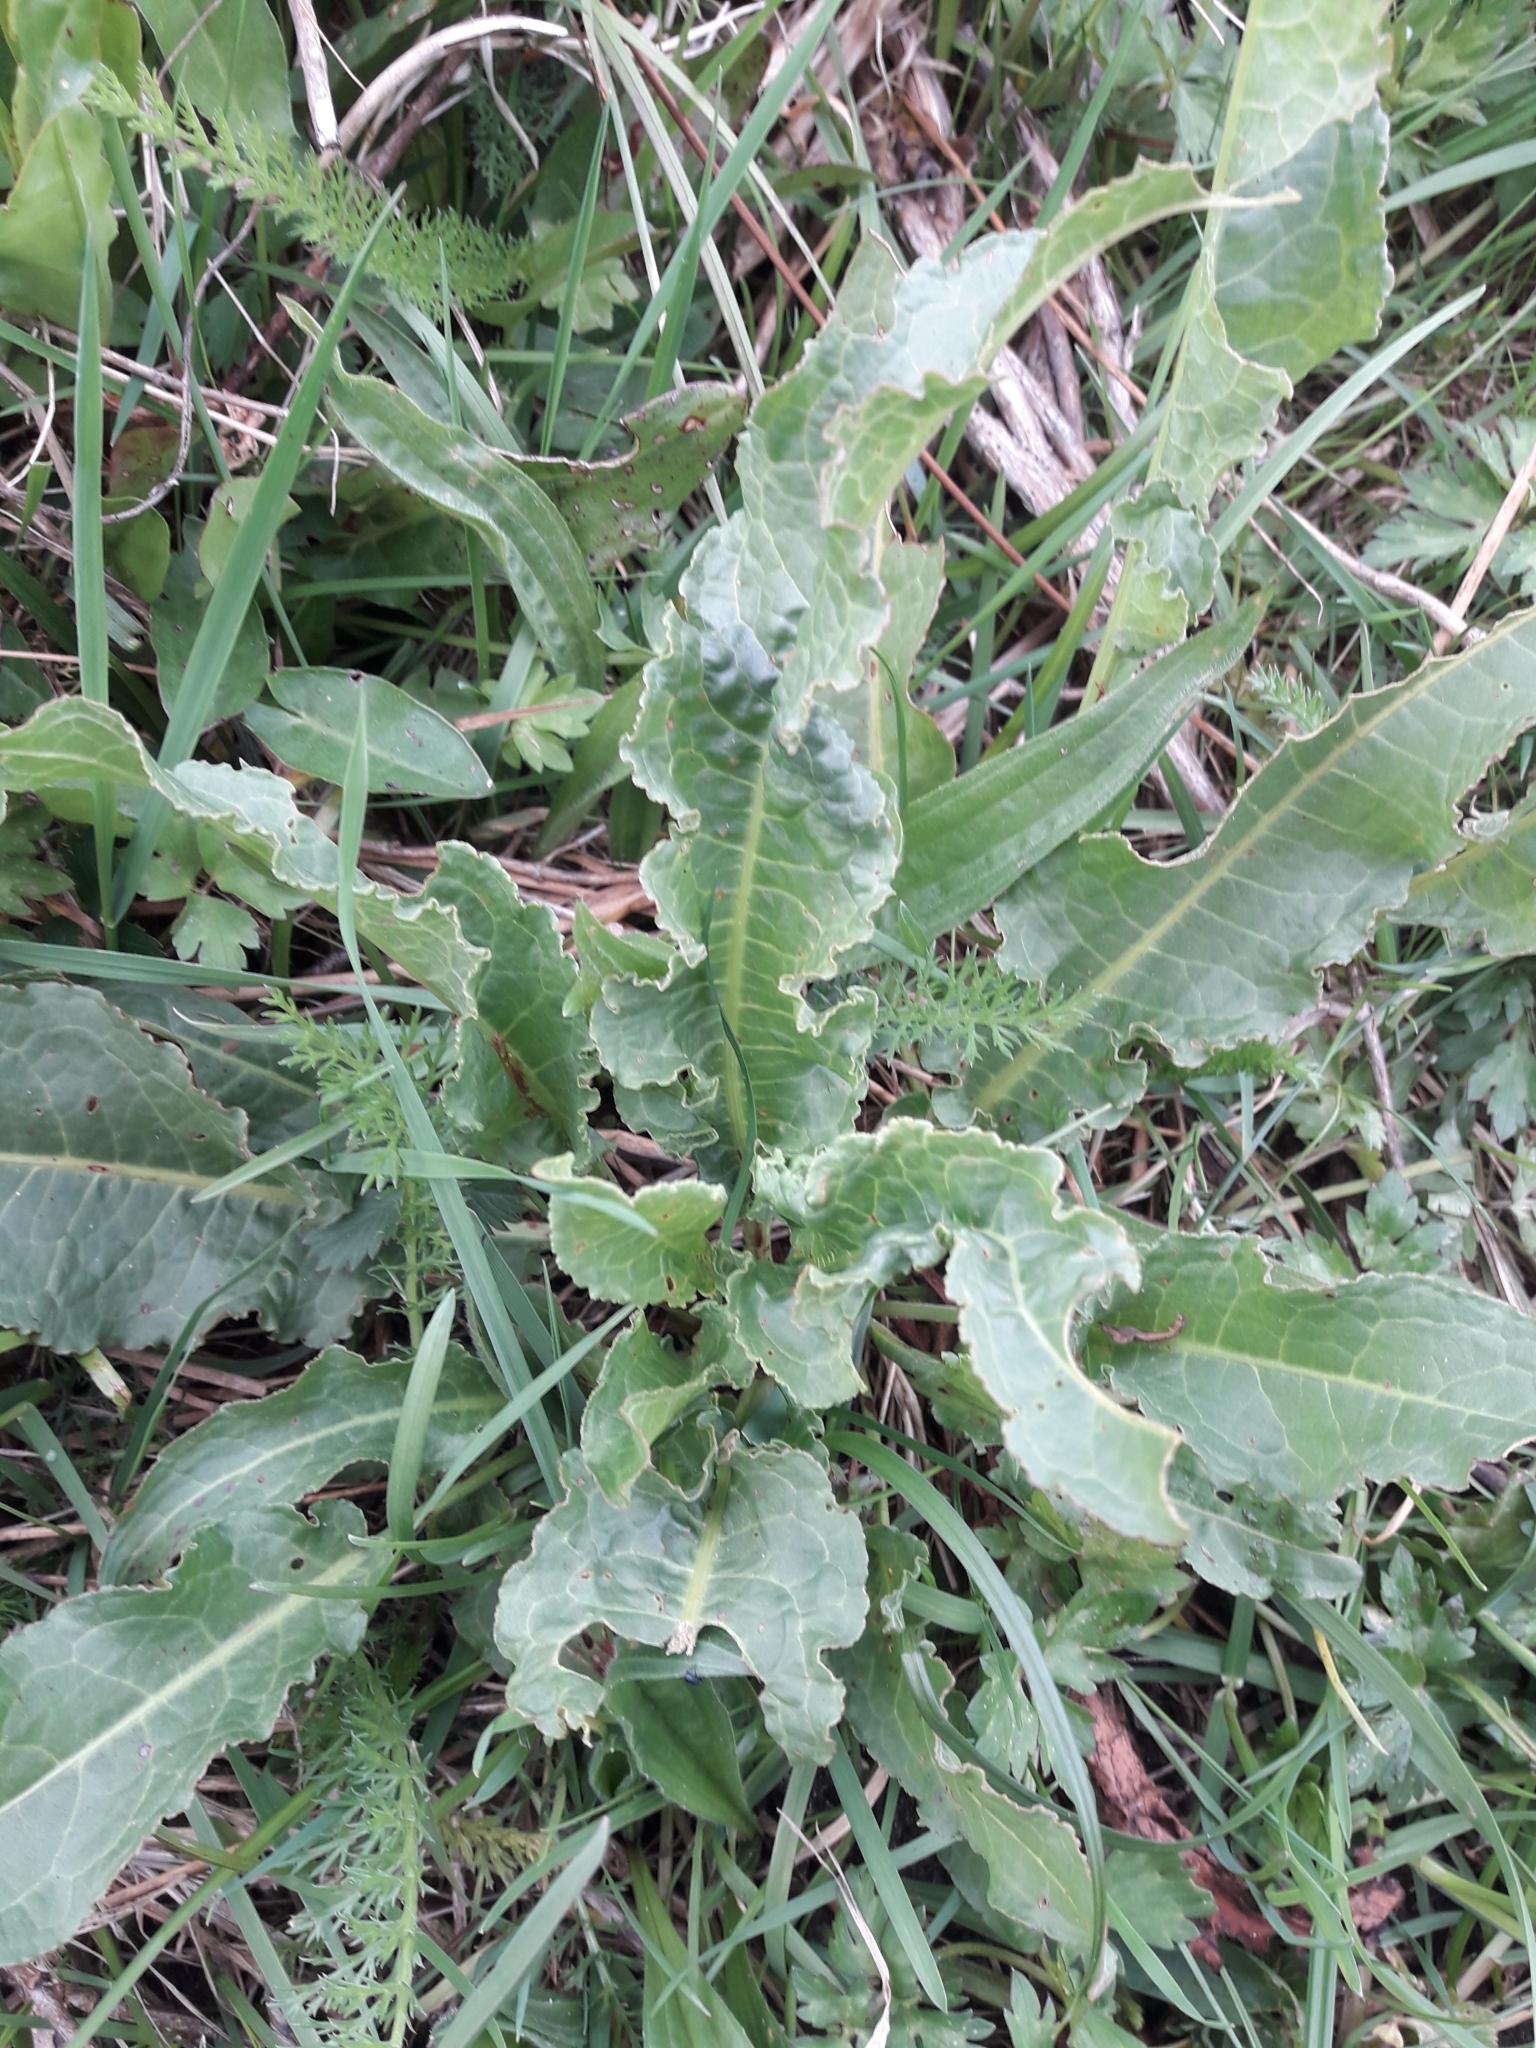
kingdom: Plantae
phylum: Tracheophyta
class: Magnoliopsida
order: Caryophyllales
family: Polygonaceae
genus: Rumex
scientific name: Rumex crispus
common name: Curled dock
